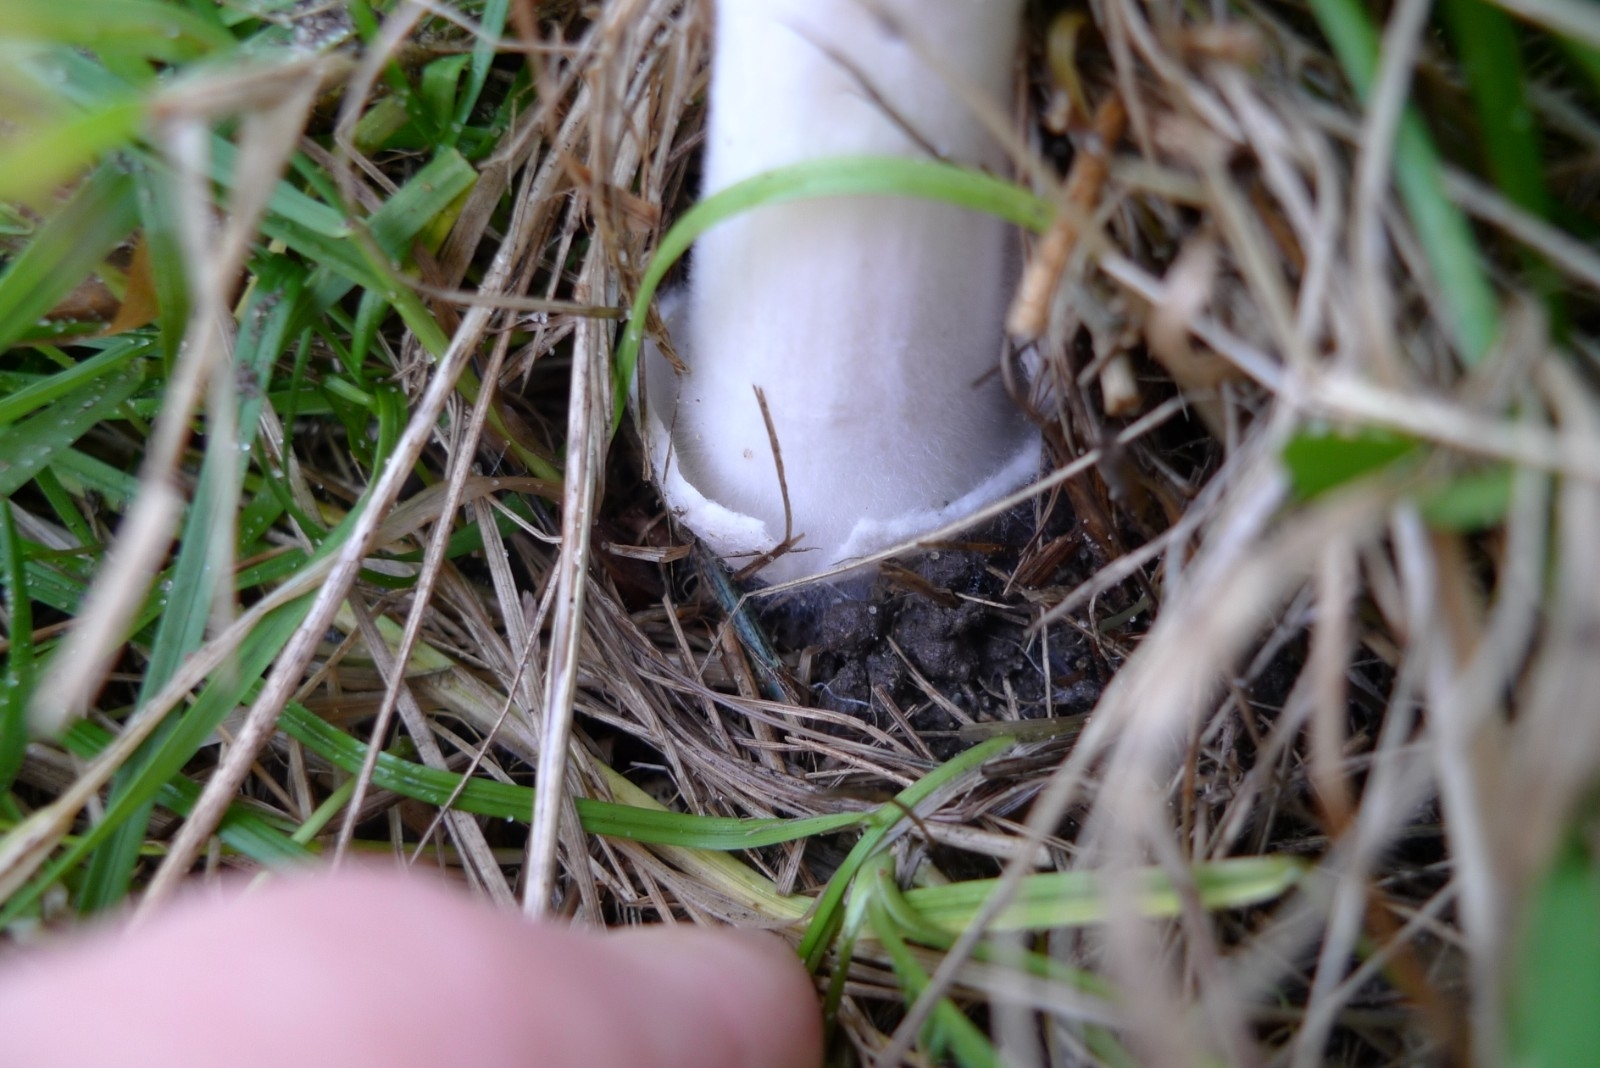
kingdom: Fungi
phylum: Basidiomycota
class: Agaricomycetes
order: Agaricales
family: Pluteaceae
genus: Volvopluteus
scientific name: Volvopluteus gloiocephalus
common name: Stubble rosegill
